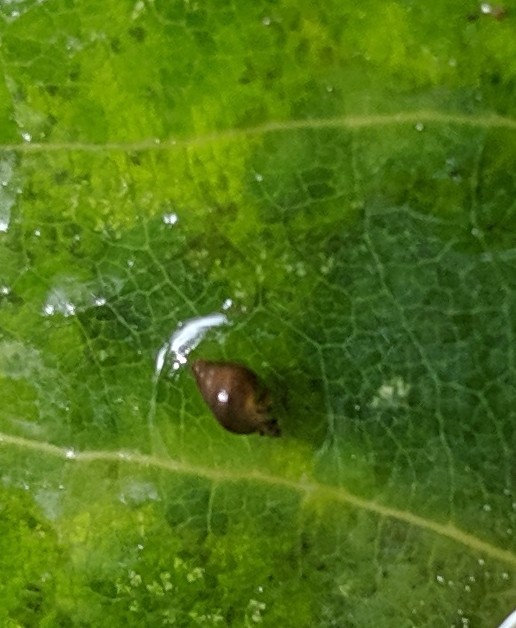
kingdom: Animalia
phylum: Mollusca
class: Gastropoda
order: Littorinimorpha
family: Tateidae
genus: Potamopyrgus
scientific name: Potamopyrgus antipodarum
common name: Jenkins' spire snail
